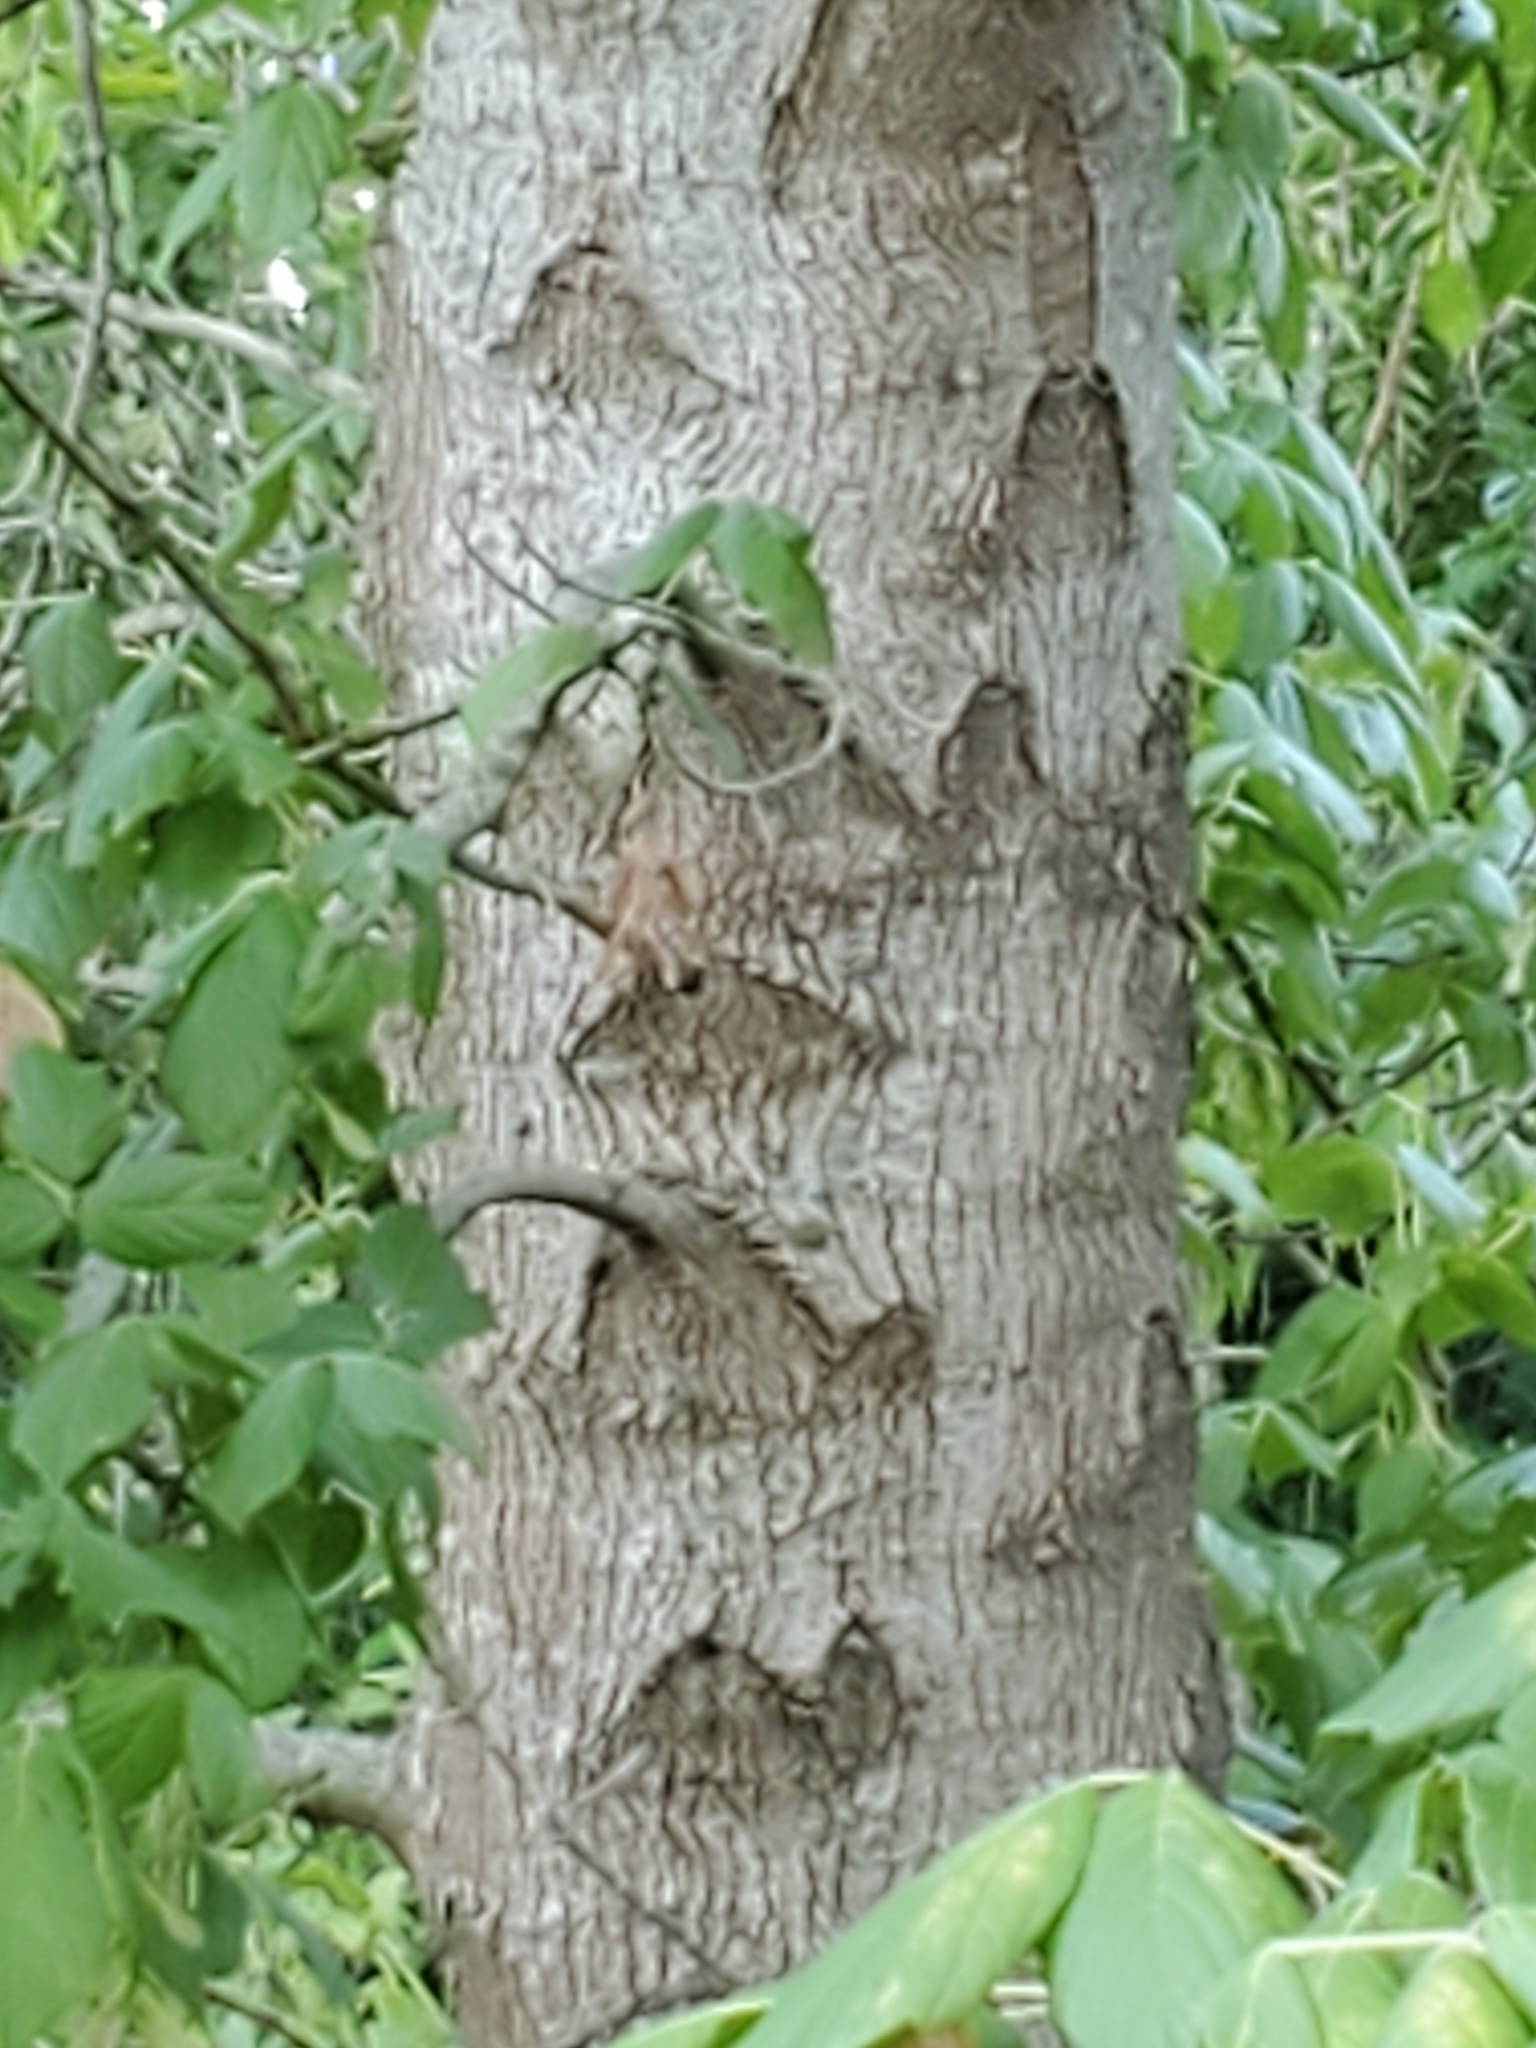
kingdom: Plantae
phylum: Tracheophyta
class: Magnoliopsida
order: Sapindales
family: Sapindaceae
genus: Acer
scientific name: Acer negundo
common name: Ashleaf maple
